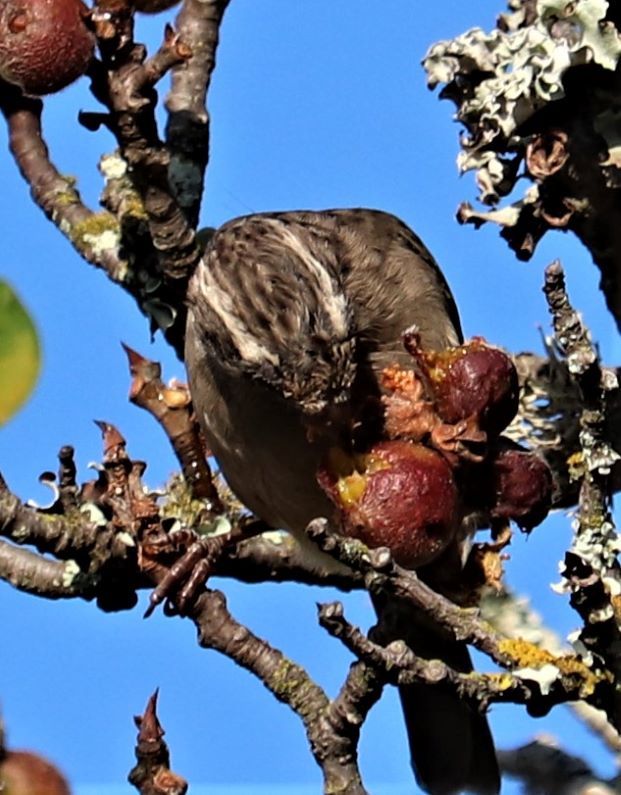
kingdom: Animalia
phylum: Chordata
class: Aves
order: Passeriformes
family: Fringillidae
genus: Crithagra
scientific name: Crithagra gularis
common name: Streaky-headed seedeater
